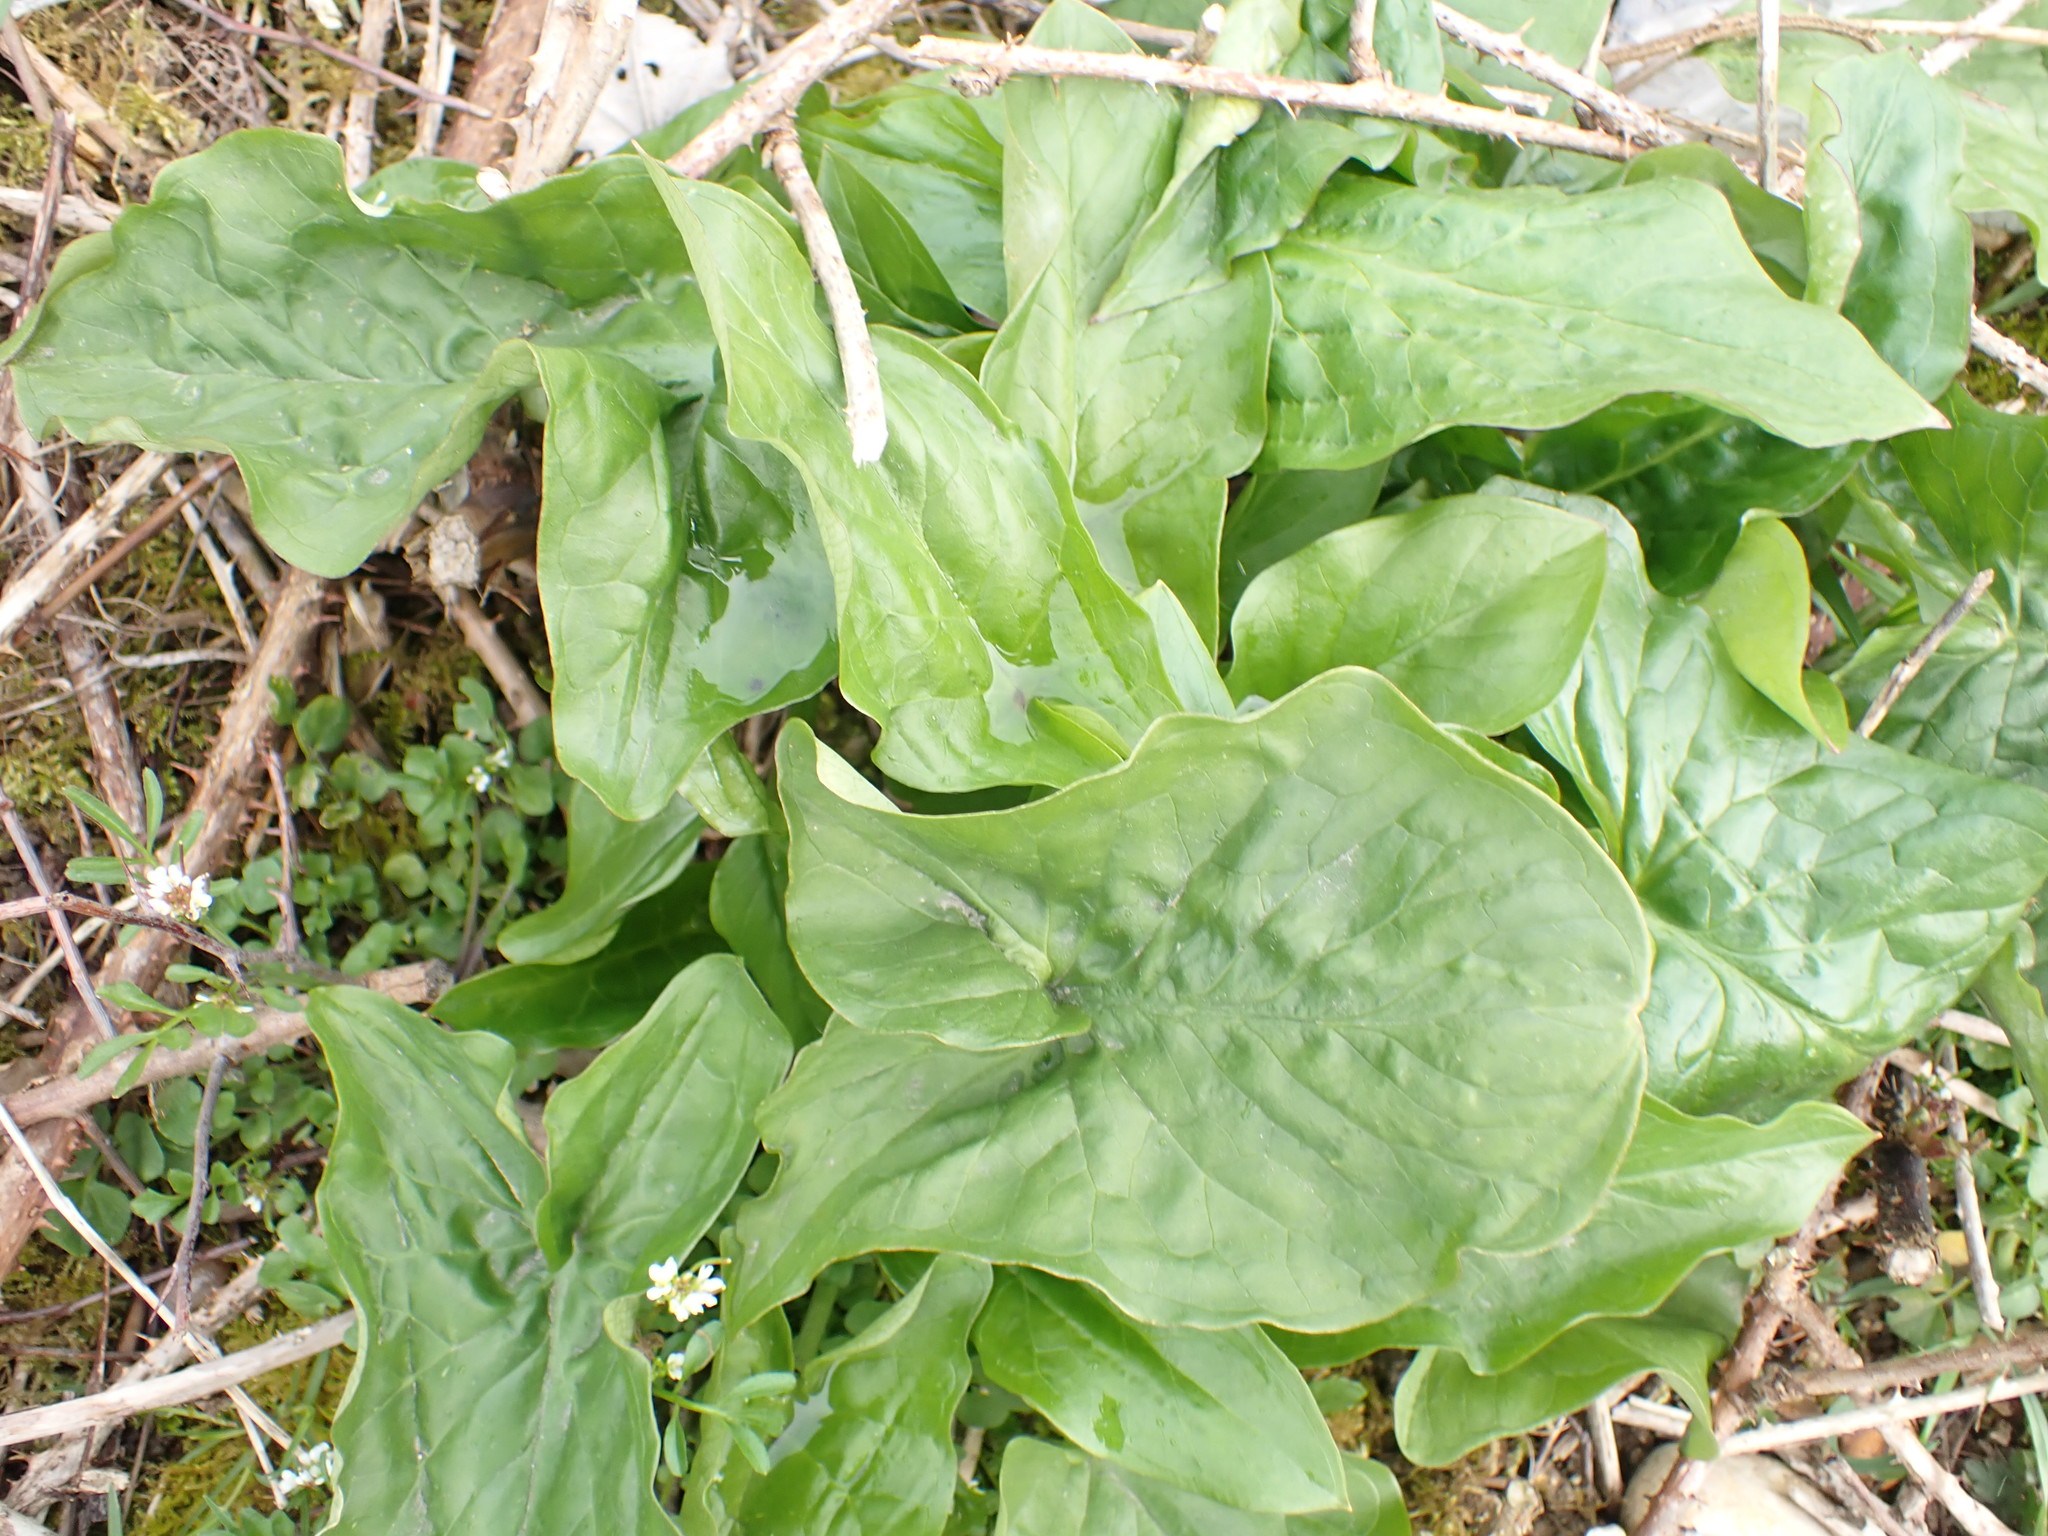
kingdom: Plantae
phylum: Tracheophyta
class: Liliopsida
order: Alismatales
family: Araceae
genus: Arum
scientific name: Arum maculatum
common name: Lords-and-ladies
